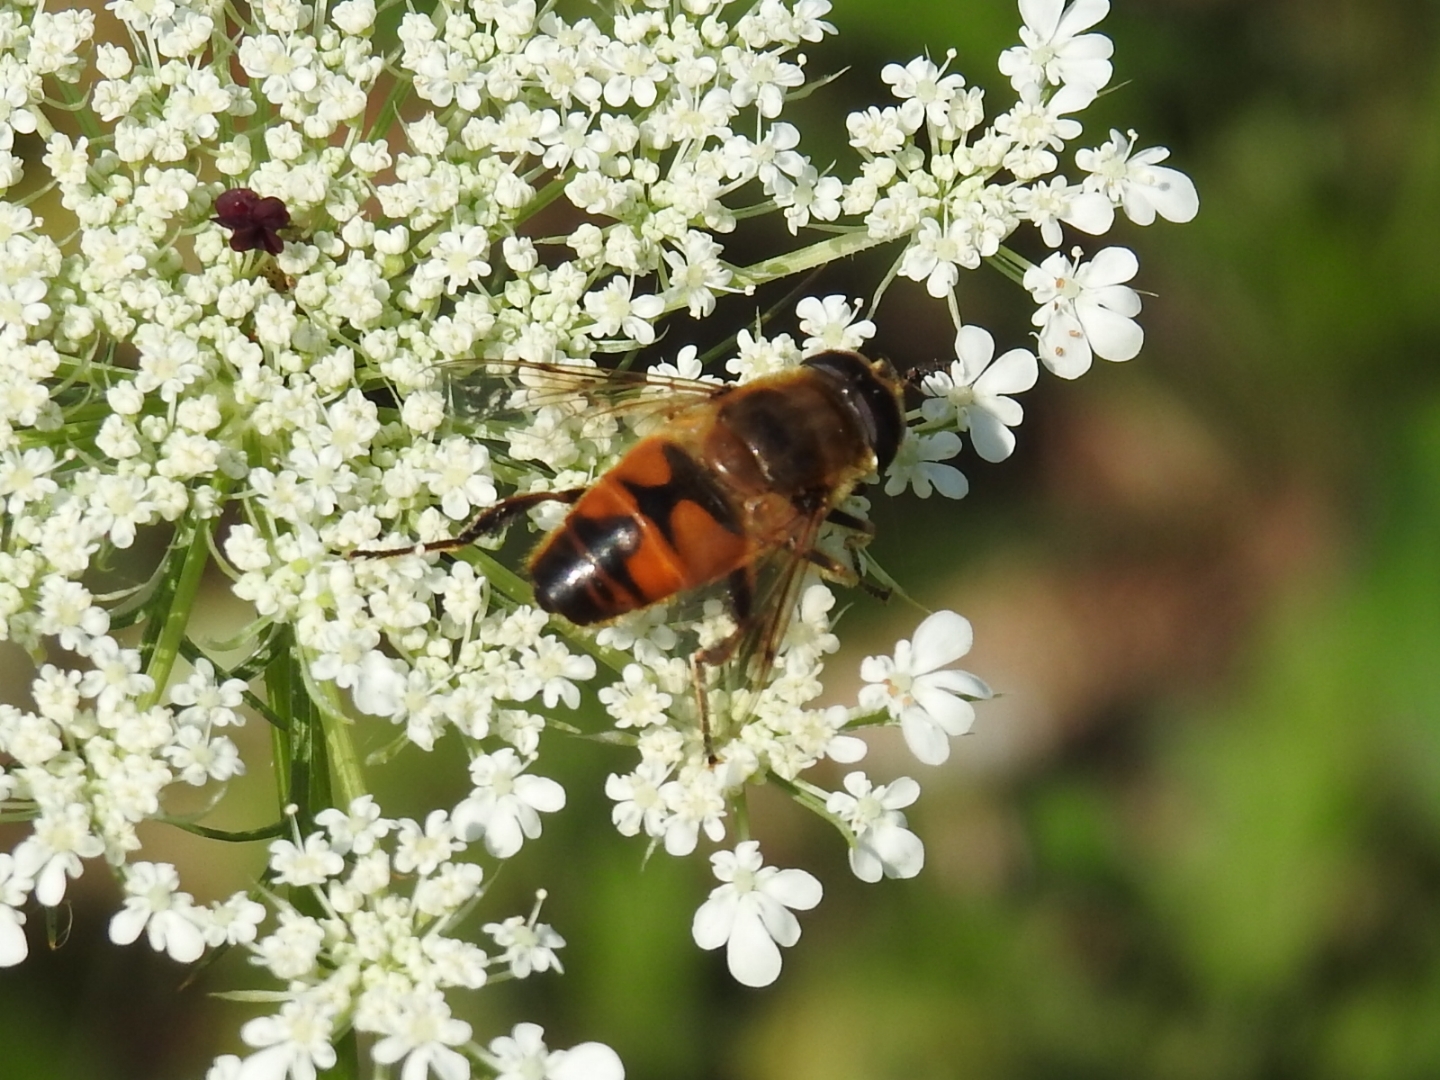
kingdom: Animalia
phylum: Arthropoda
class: Insecta
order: Diptera
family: Syrphidae
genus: Eristalis
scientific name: Eristalis tenax
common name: Drone fly
